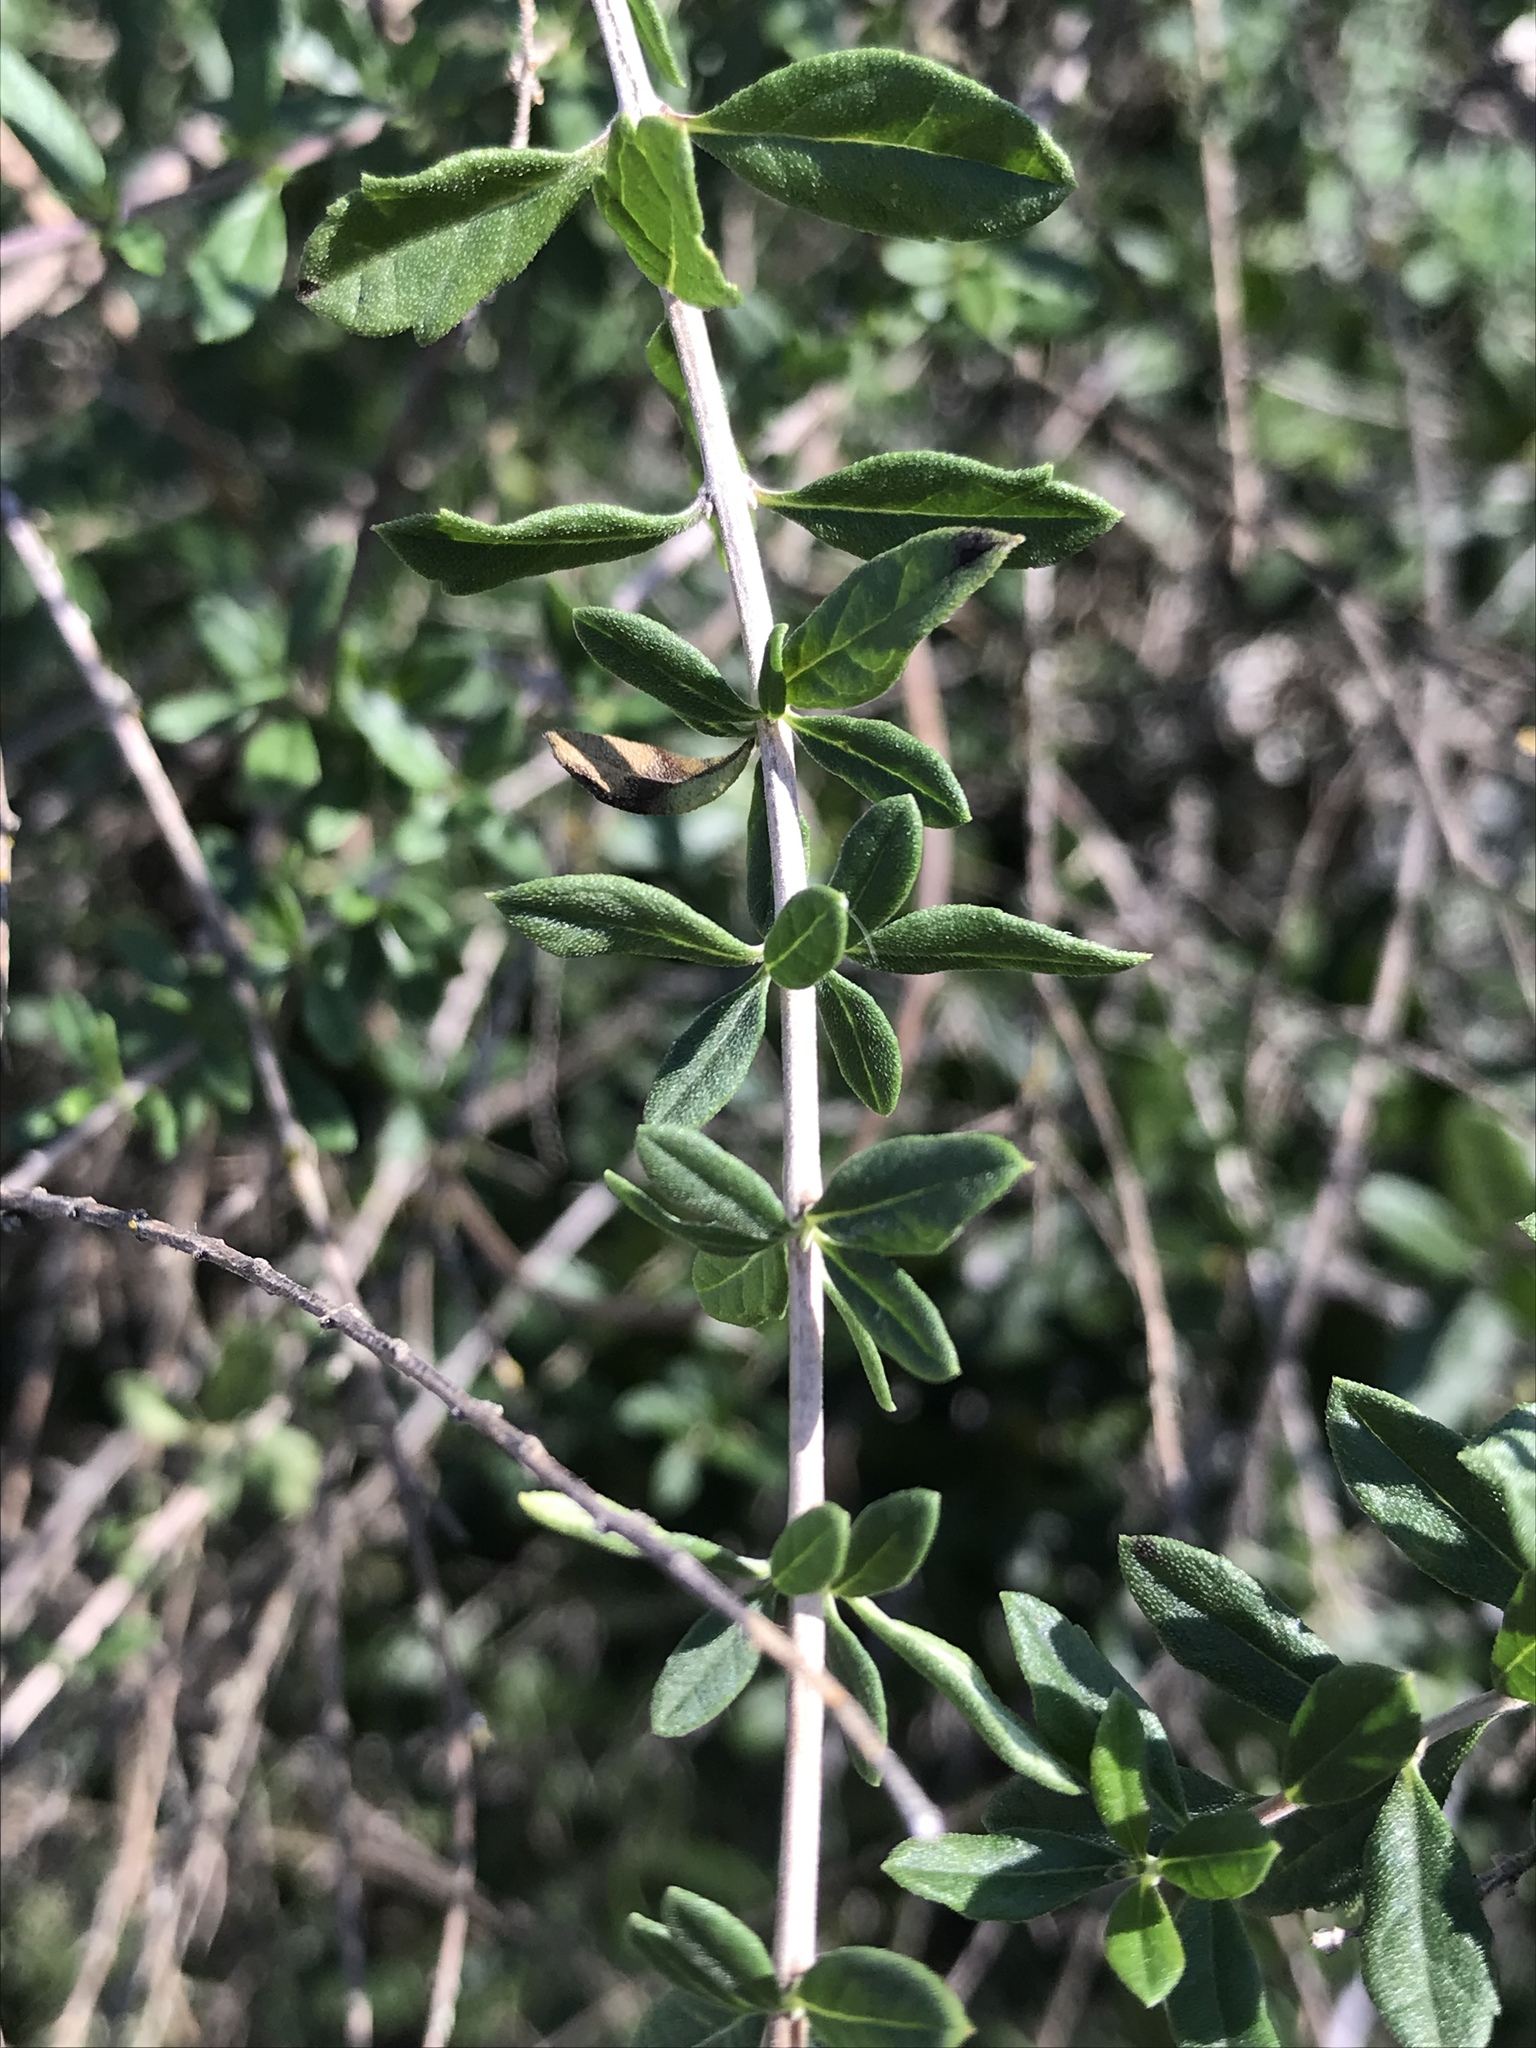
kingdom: Plantae
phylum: Tracheophyta
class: Magnoliopsida
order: Lamiales
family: Verbenaceae
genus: Aloysia
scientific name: Aloysia gratissima
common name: Common bee-brush
